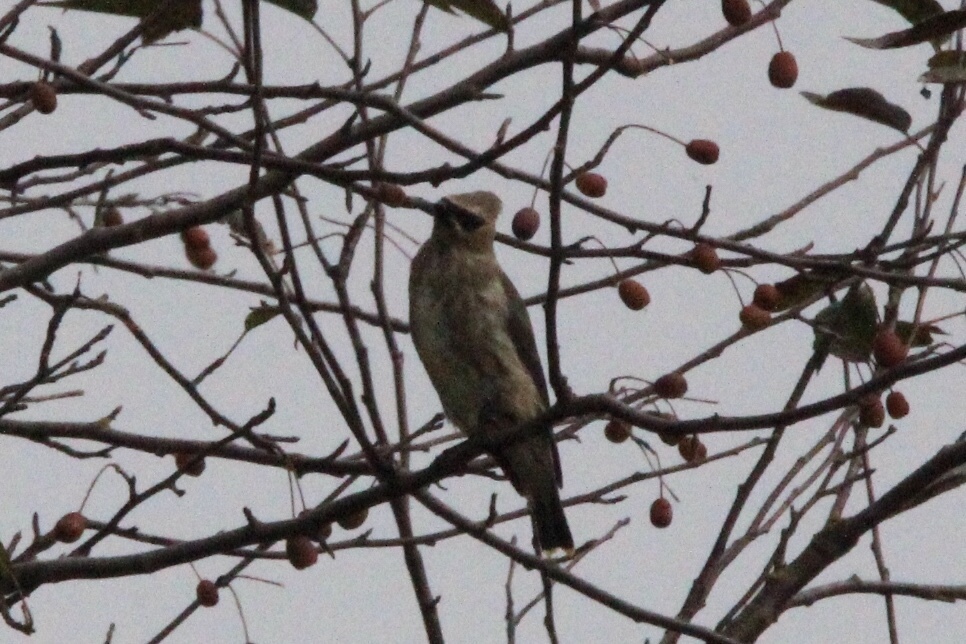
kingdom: Animalia
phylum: Chordata
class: Aves
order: Passeriformes
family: Bombycillidae
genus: Bombycilla
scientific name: Bombycilla cedrorum
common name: Cedar waxwing
